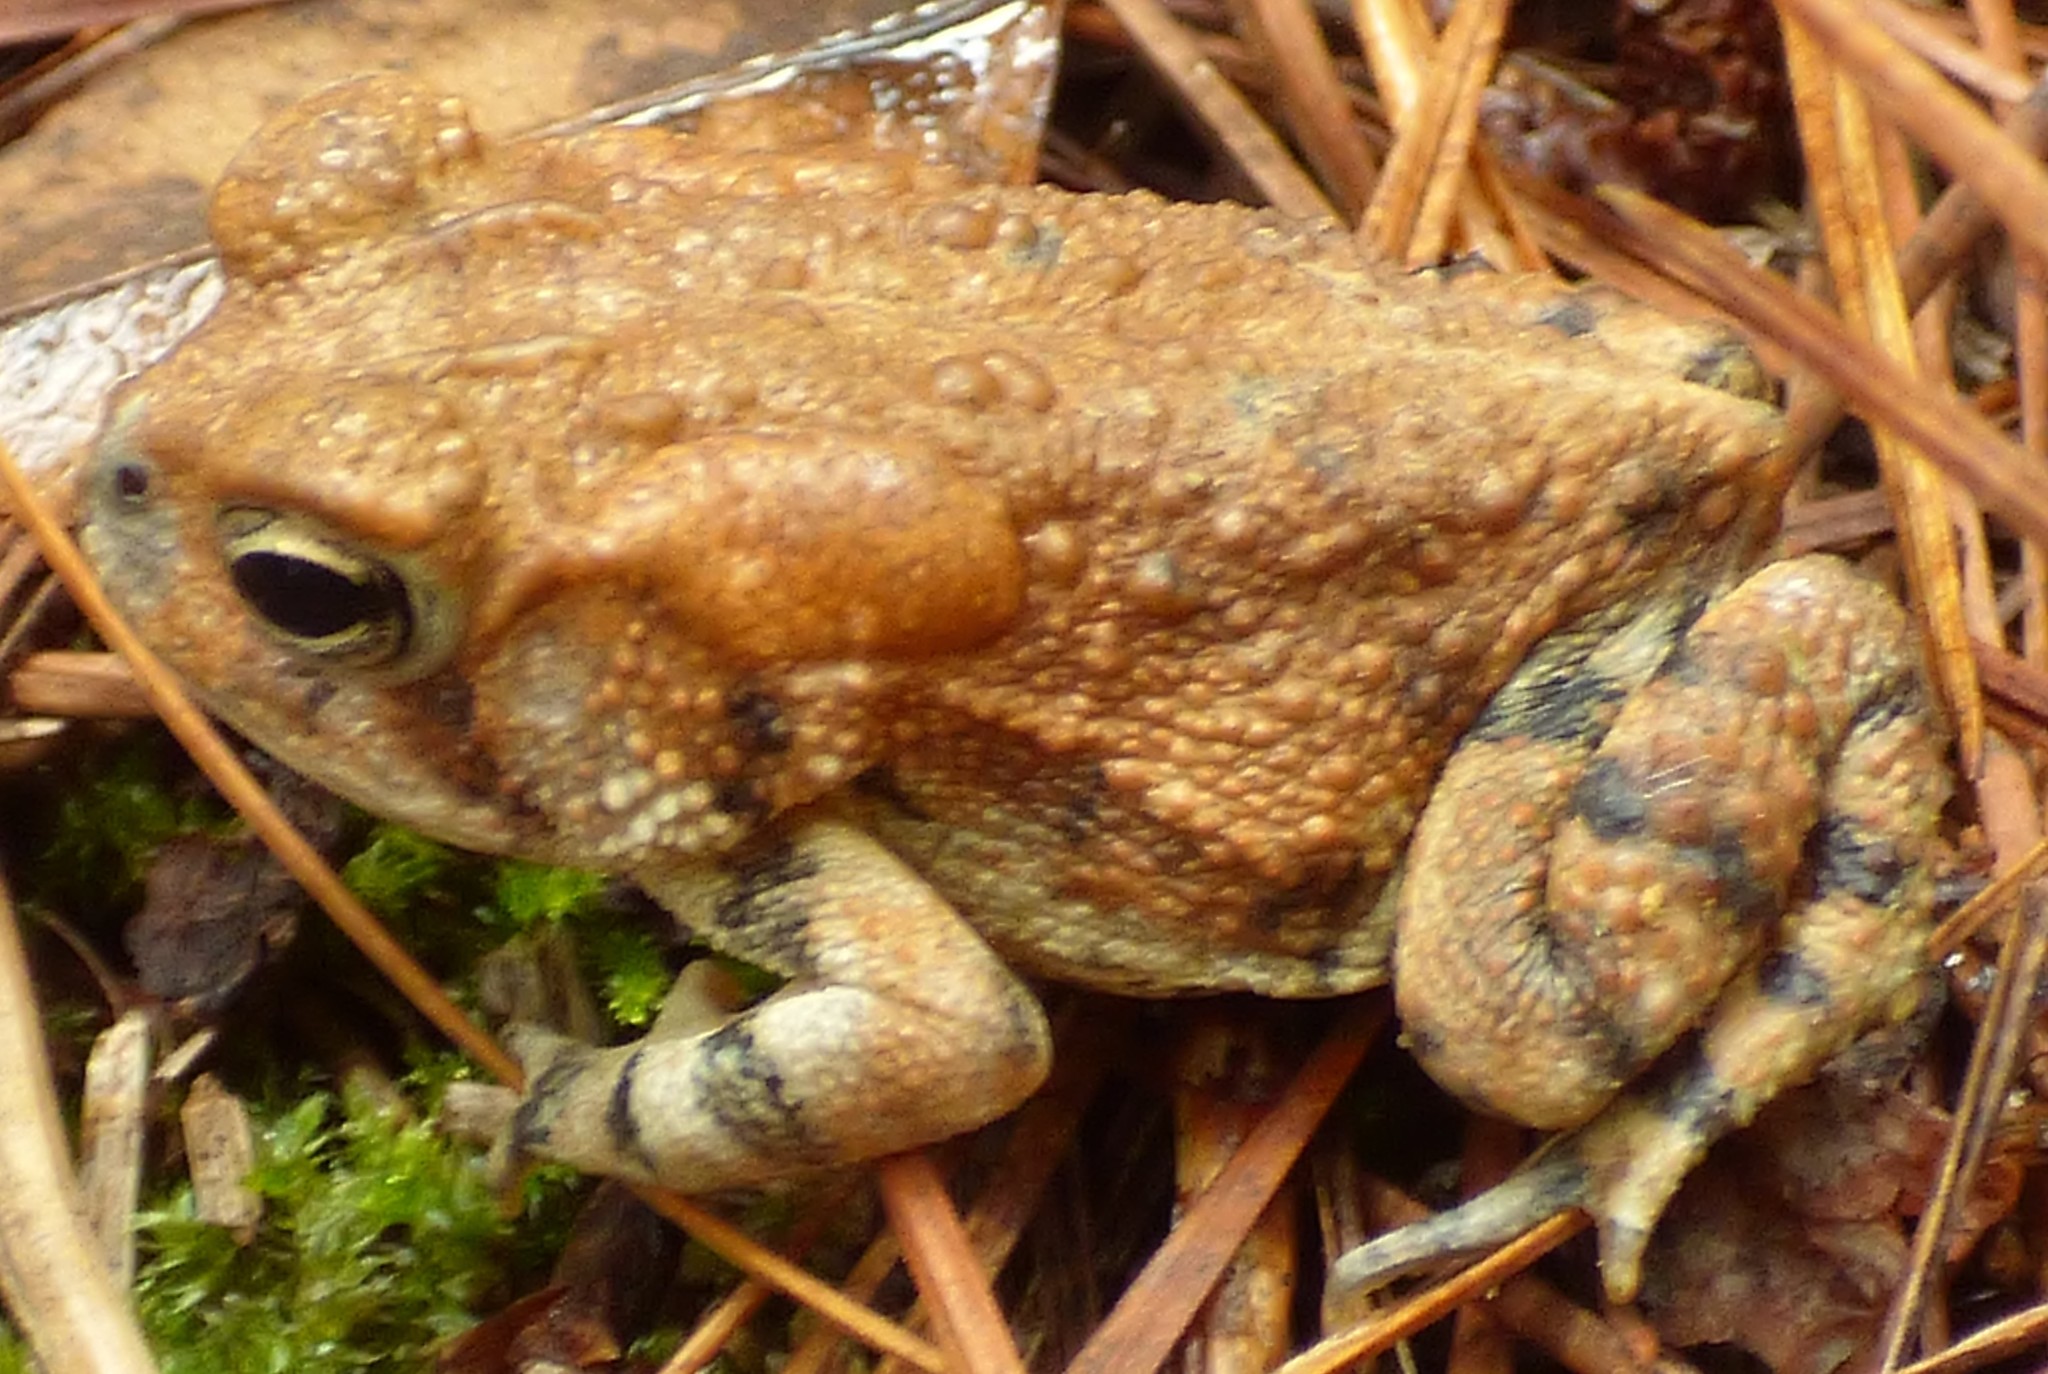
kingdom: Animalia
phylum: Chordata
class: Amphibia
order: Anura
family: Bufonidae
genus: Anaxyrus
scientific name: Anaxyrus terrestris
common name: Southern toad
